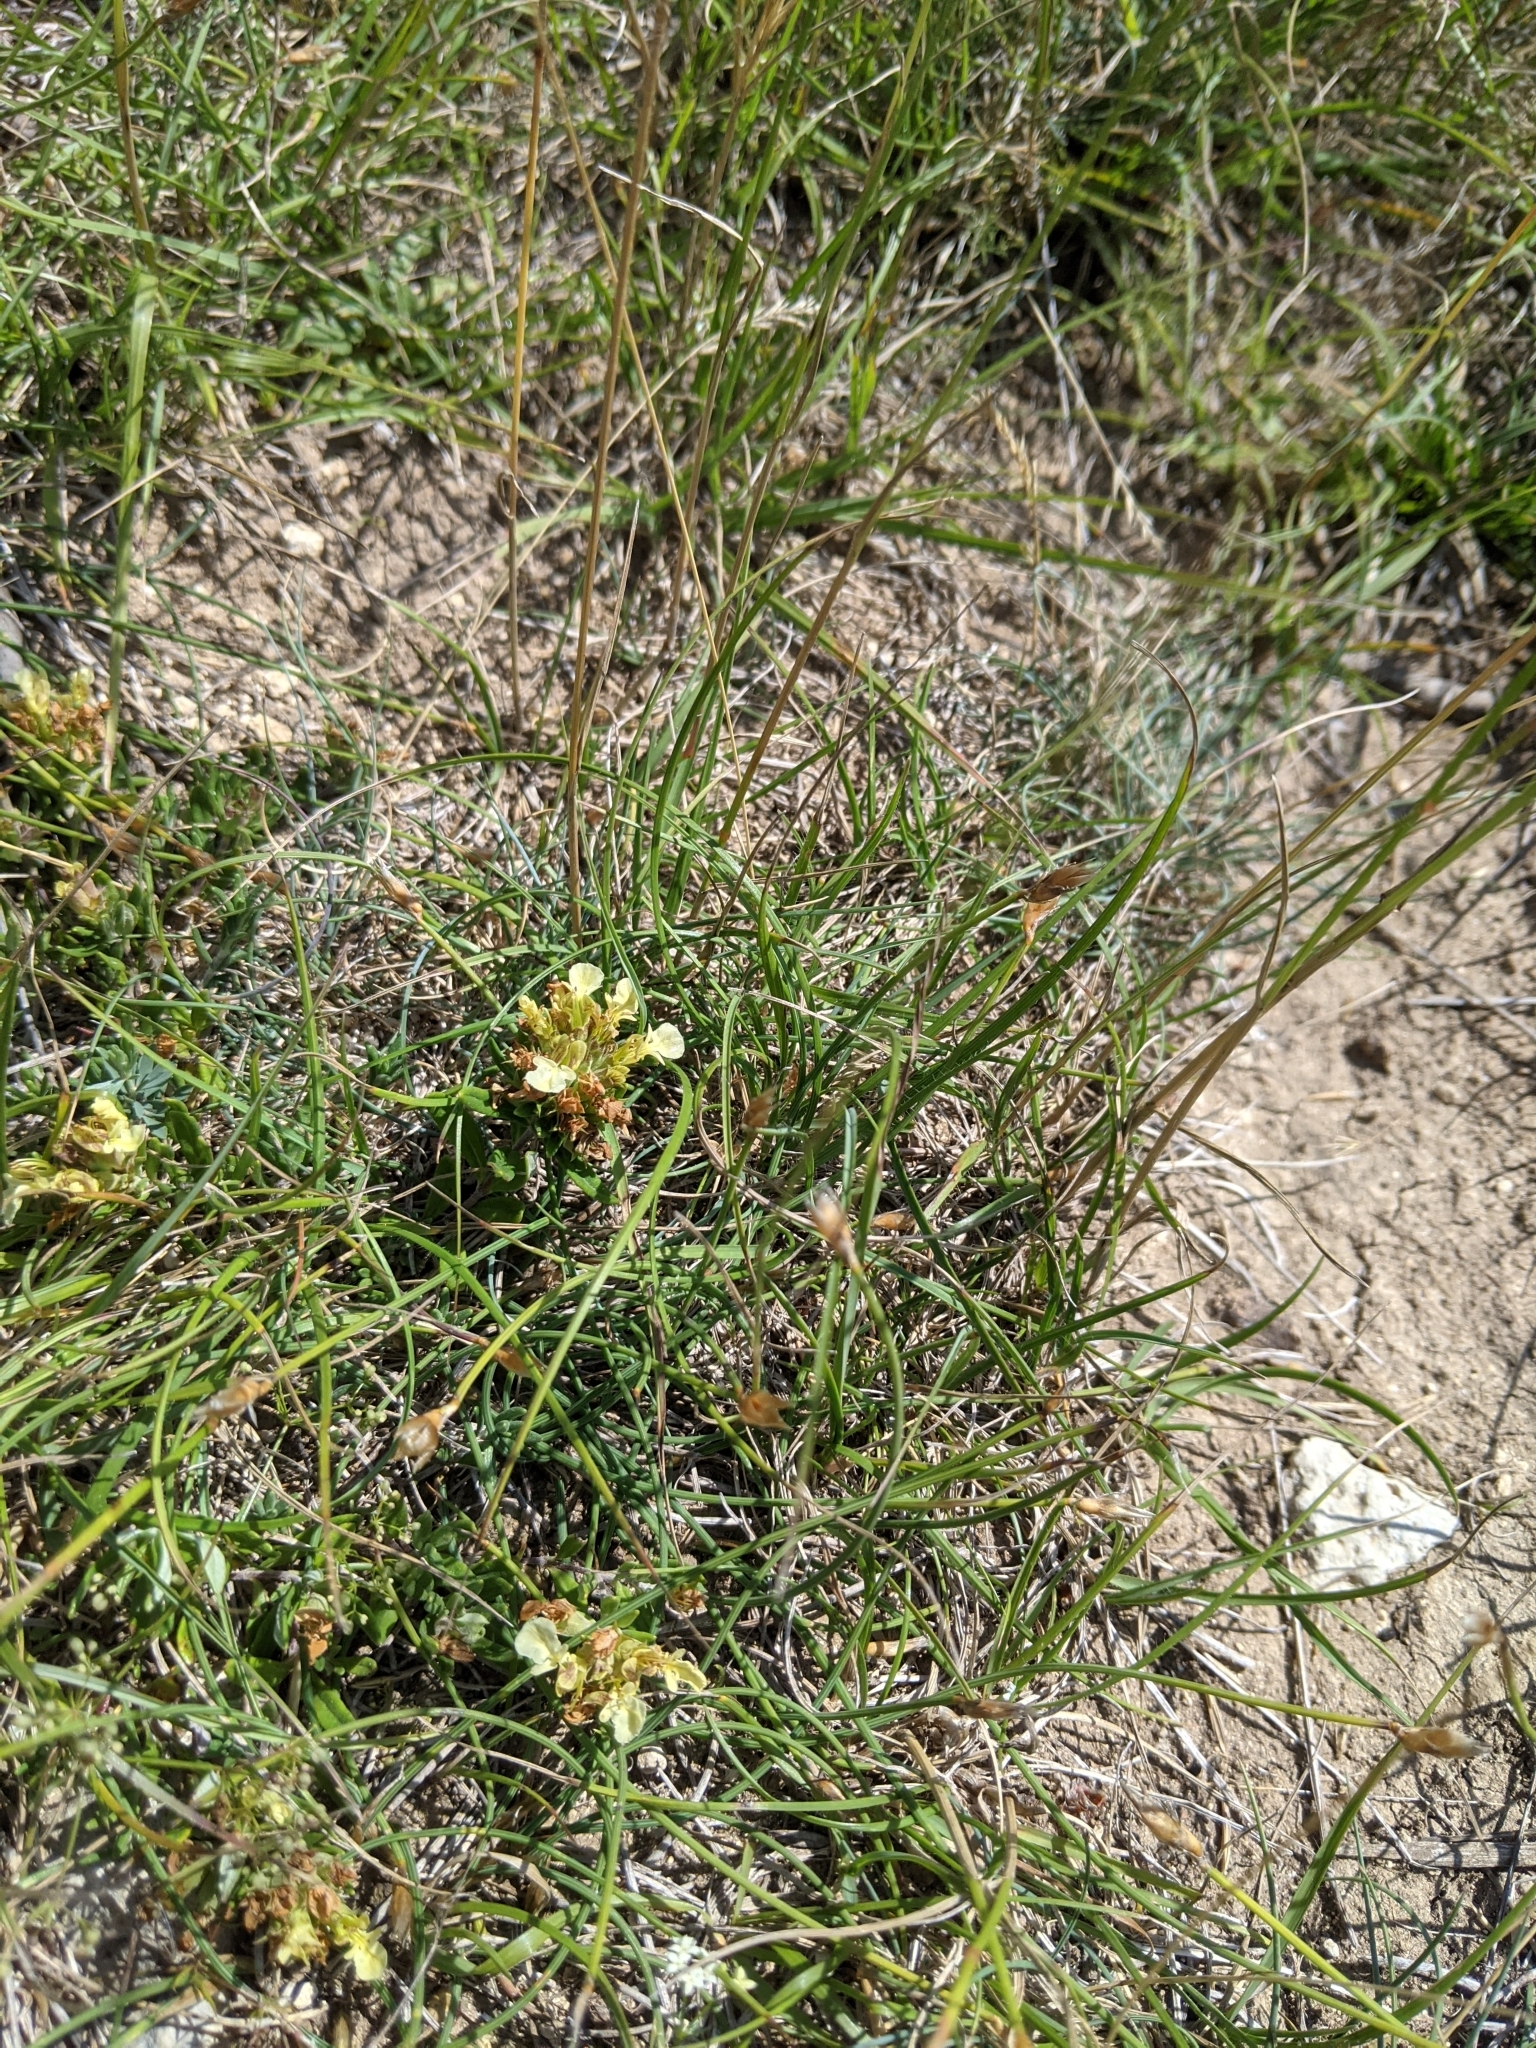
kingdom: Plantae
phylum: Tracheophyta
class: Magnoliopsida
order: Lamiales
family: Lamiaceae
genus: Teucrium
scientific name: Teucrium montanum
